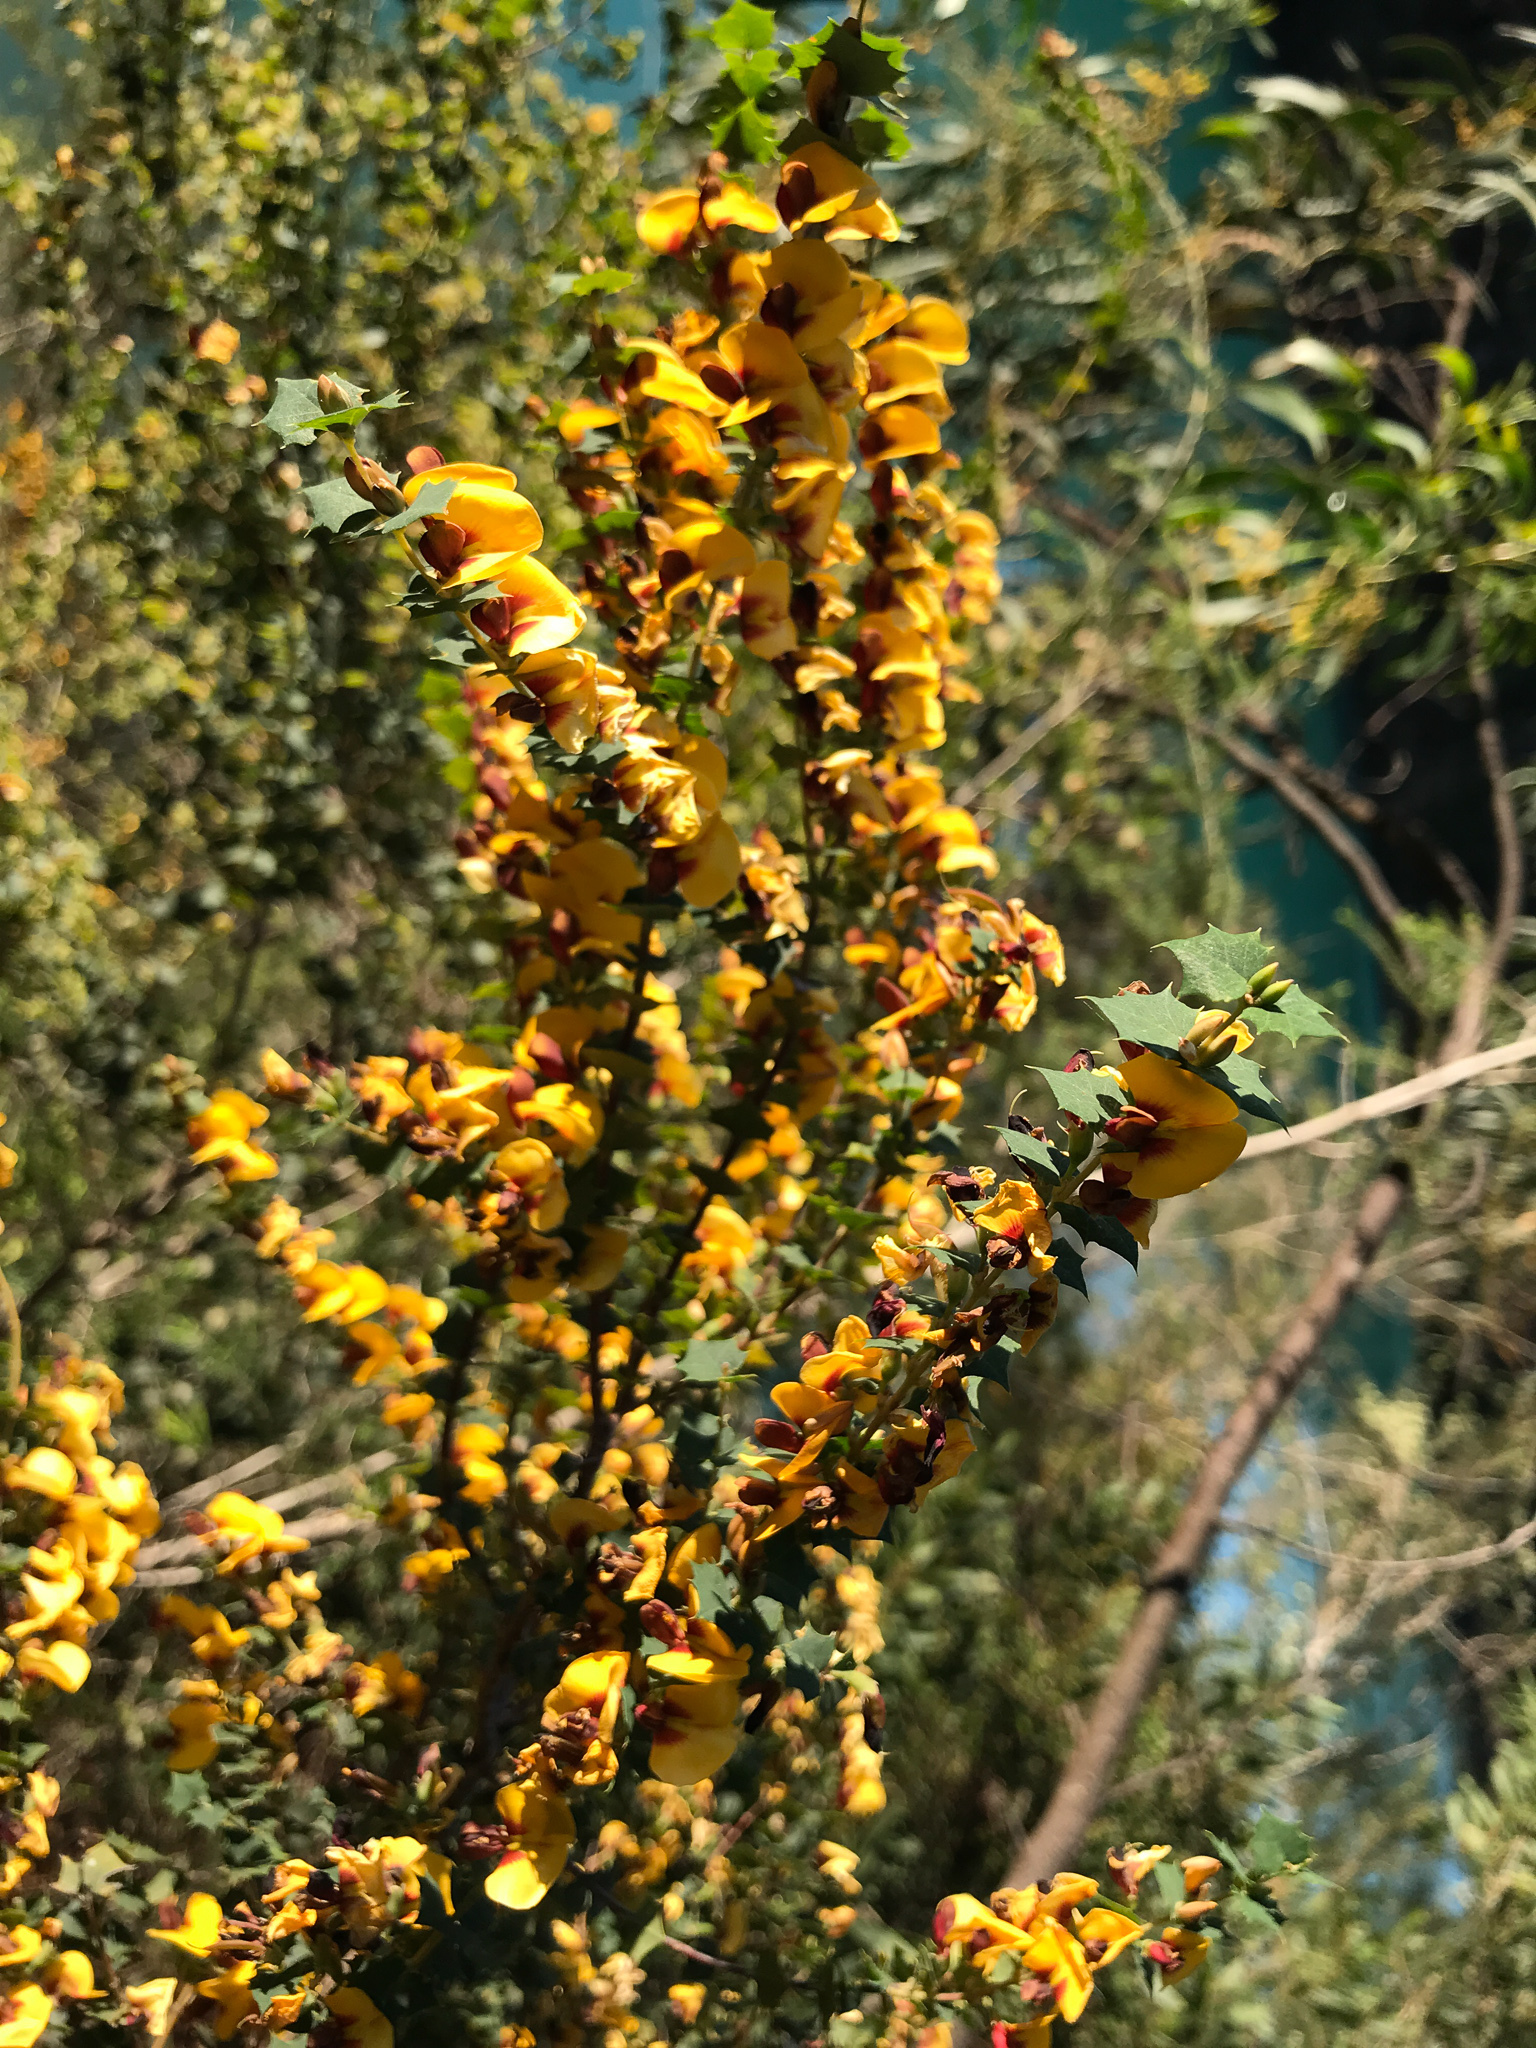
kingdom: Plantae
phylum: Tracheophyta
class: Magnoliopsida
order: Fabales
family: Fabaceae
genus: Bossiaea
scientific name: Bossiaea aquifolium
